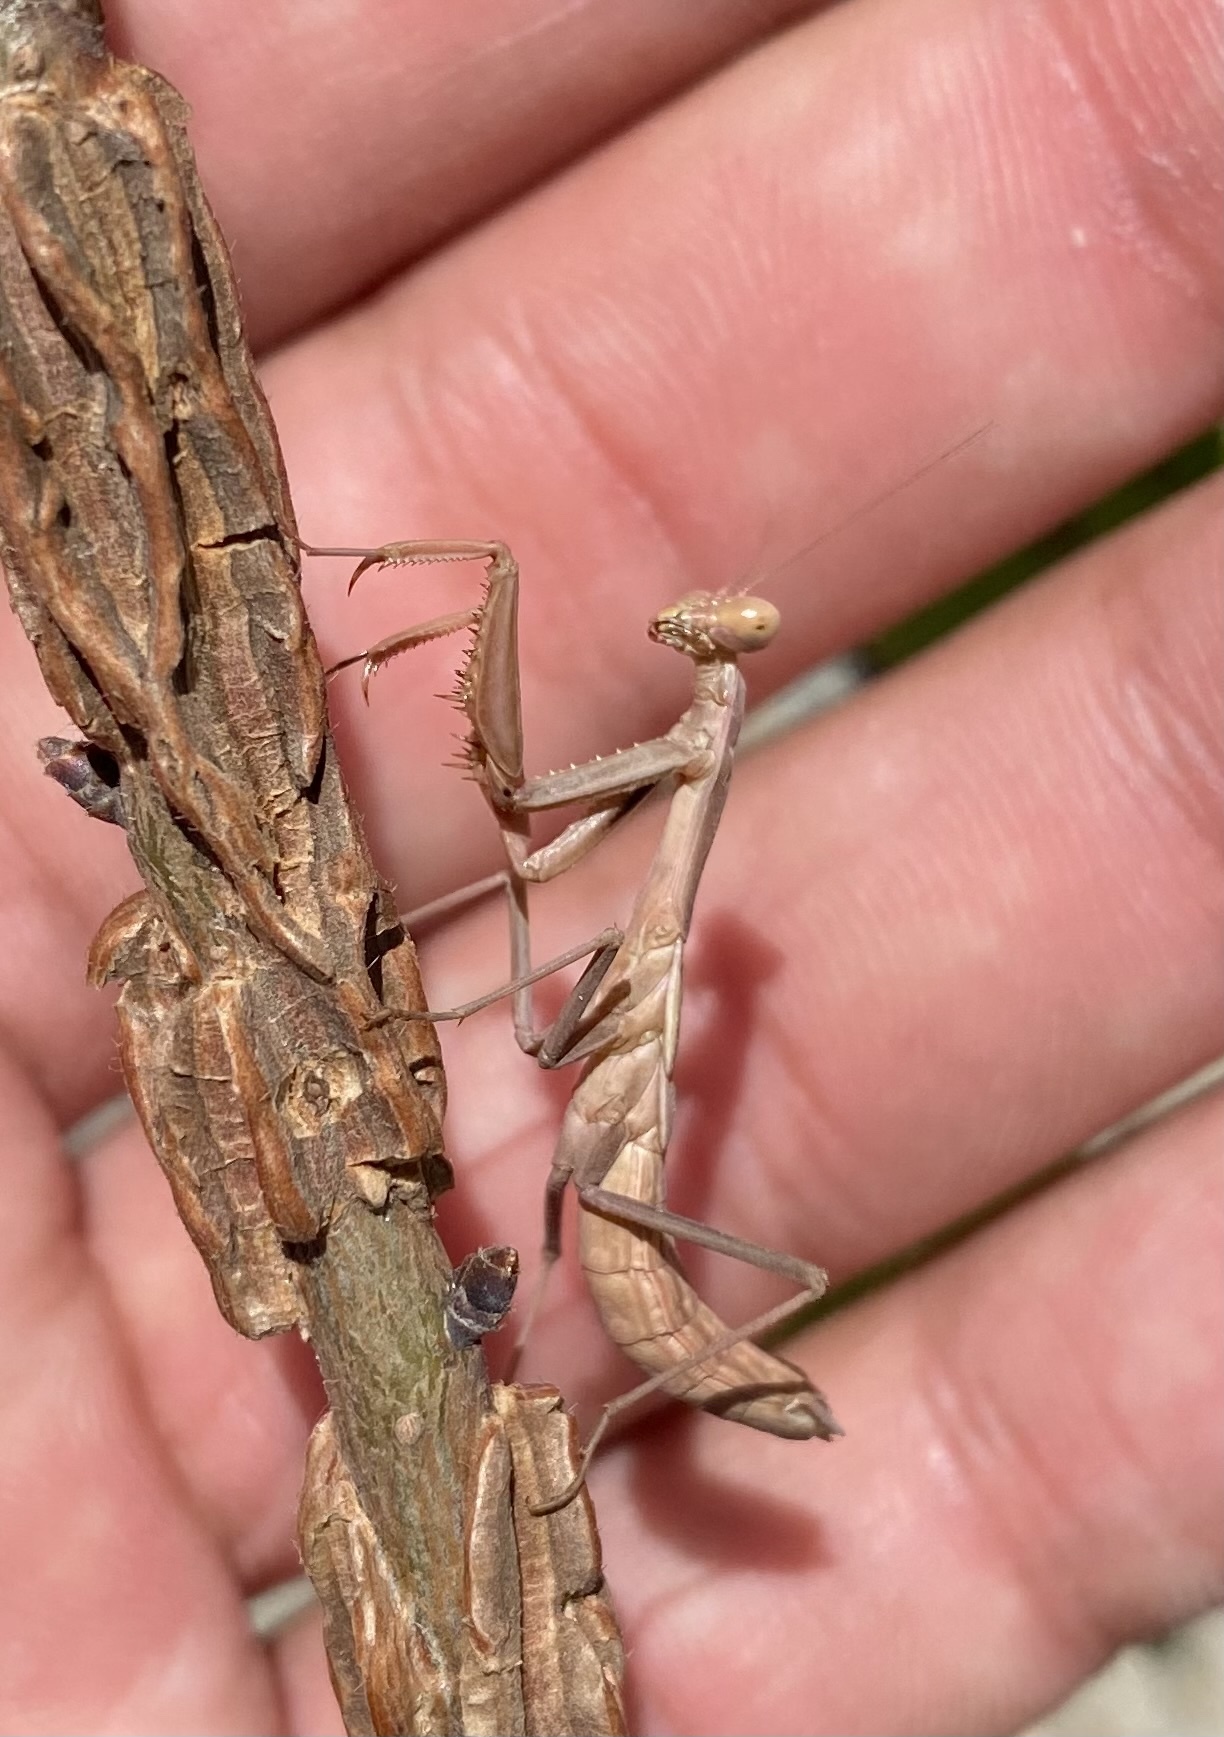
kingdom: Animalia
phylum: Arthropoda
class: Insecta
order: Mantodea
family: Eremiaphilidae
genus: Iris
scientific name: Iris polystictica
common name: Dot-winged mantis
